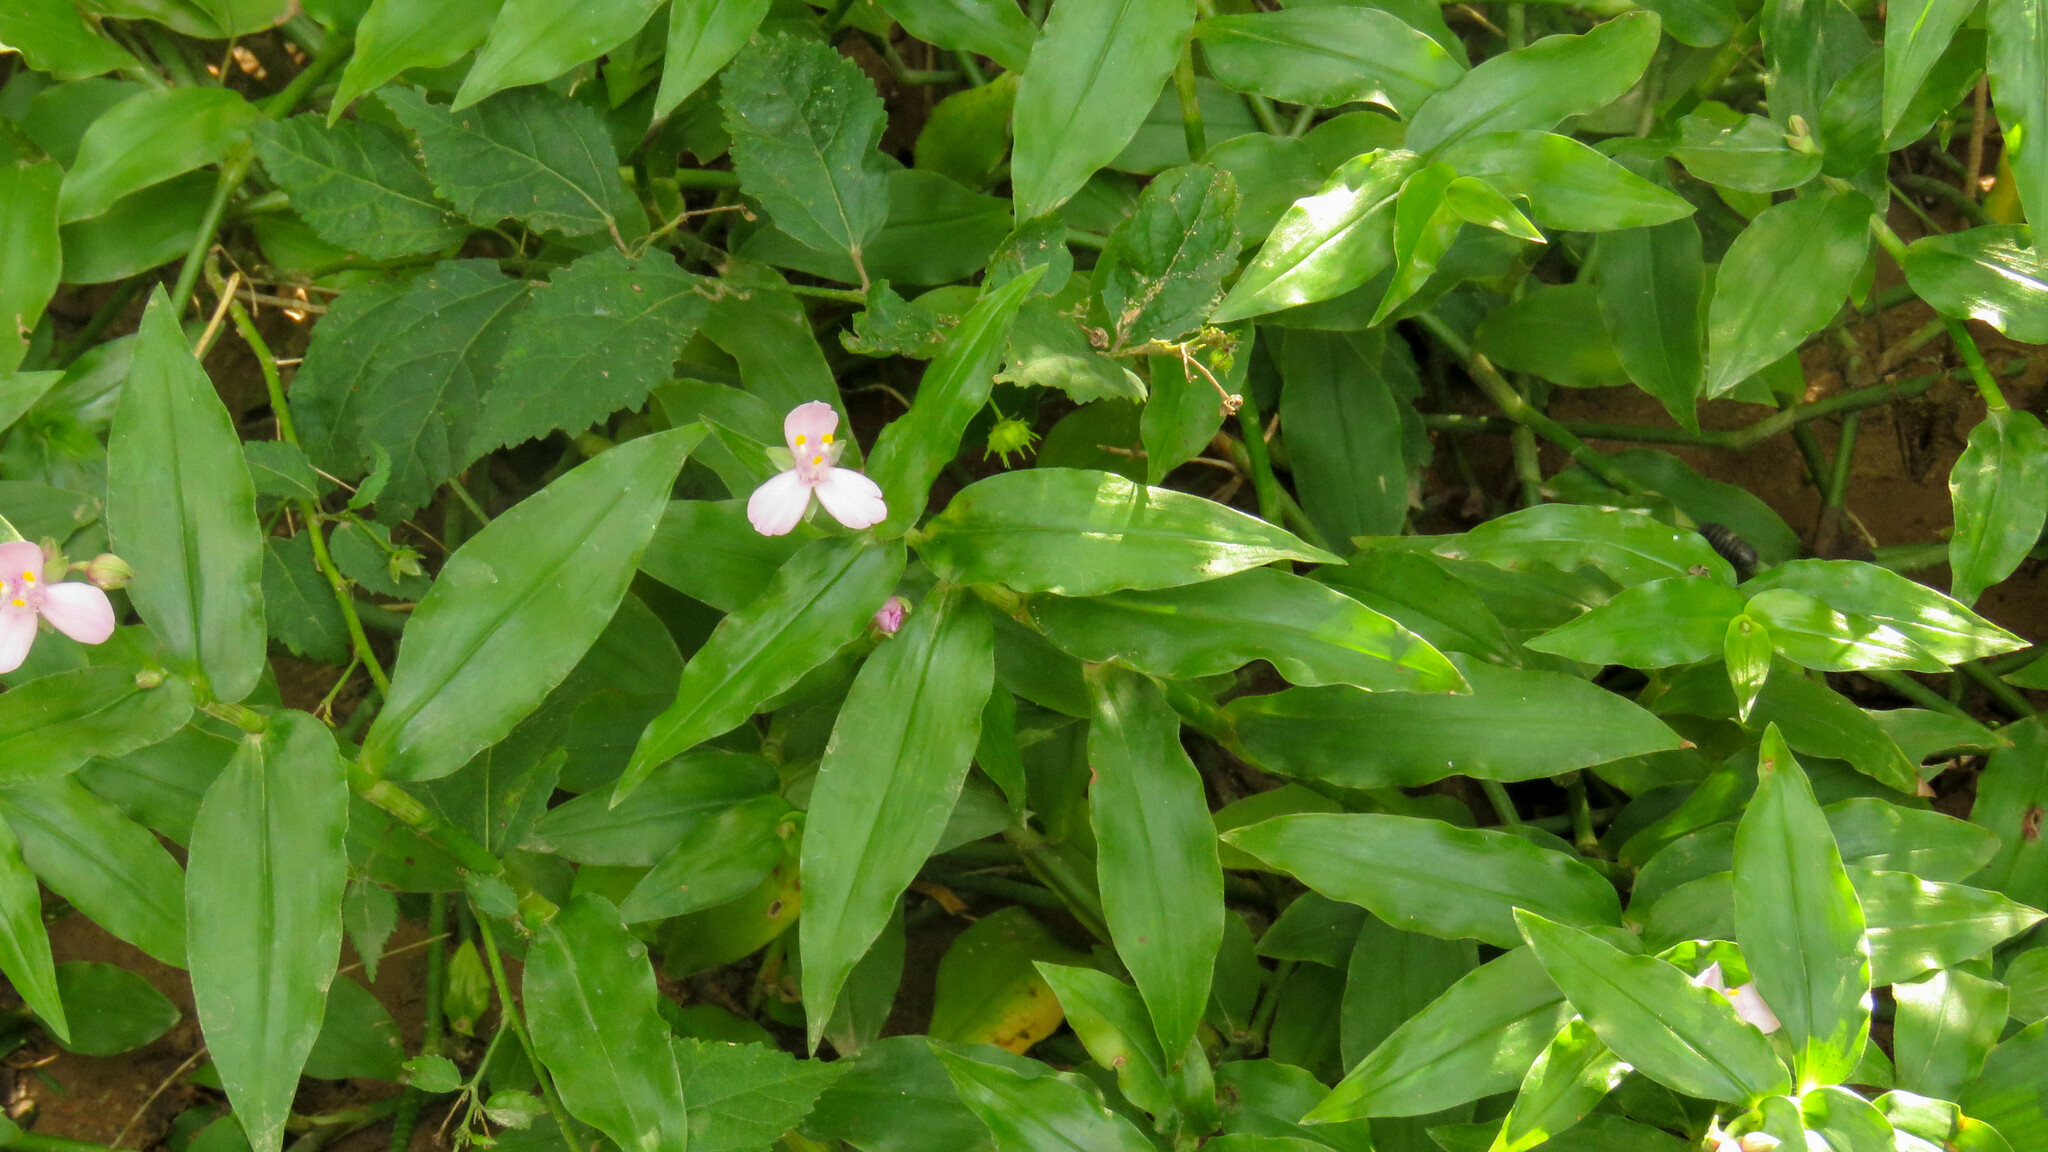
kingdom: Plantae
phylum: Tracheophyta
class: Liliopsida
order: Commelinales
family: Commelinaceae
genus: Callisia
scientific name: Callisia diuretica
